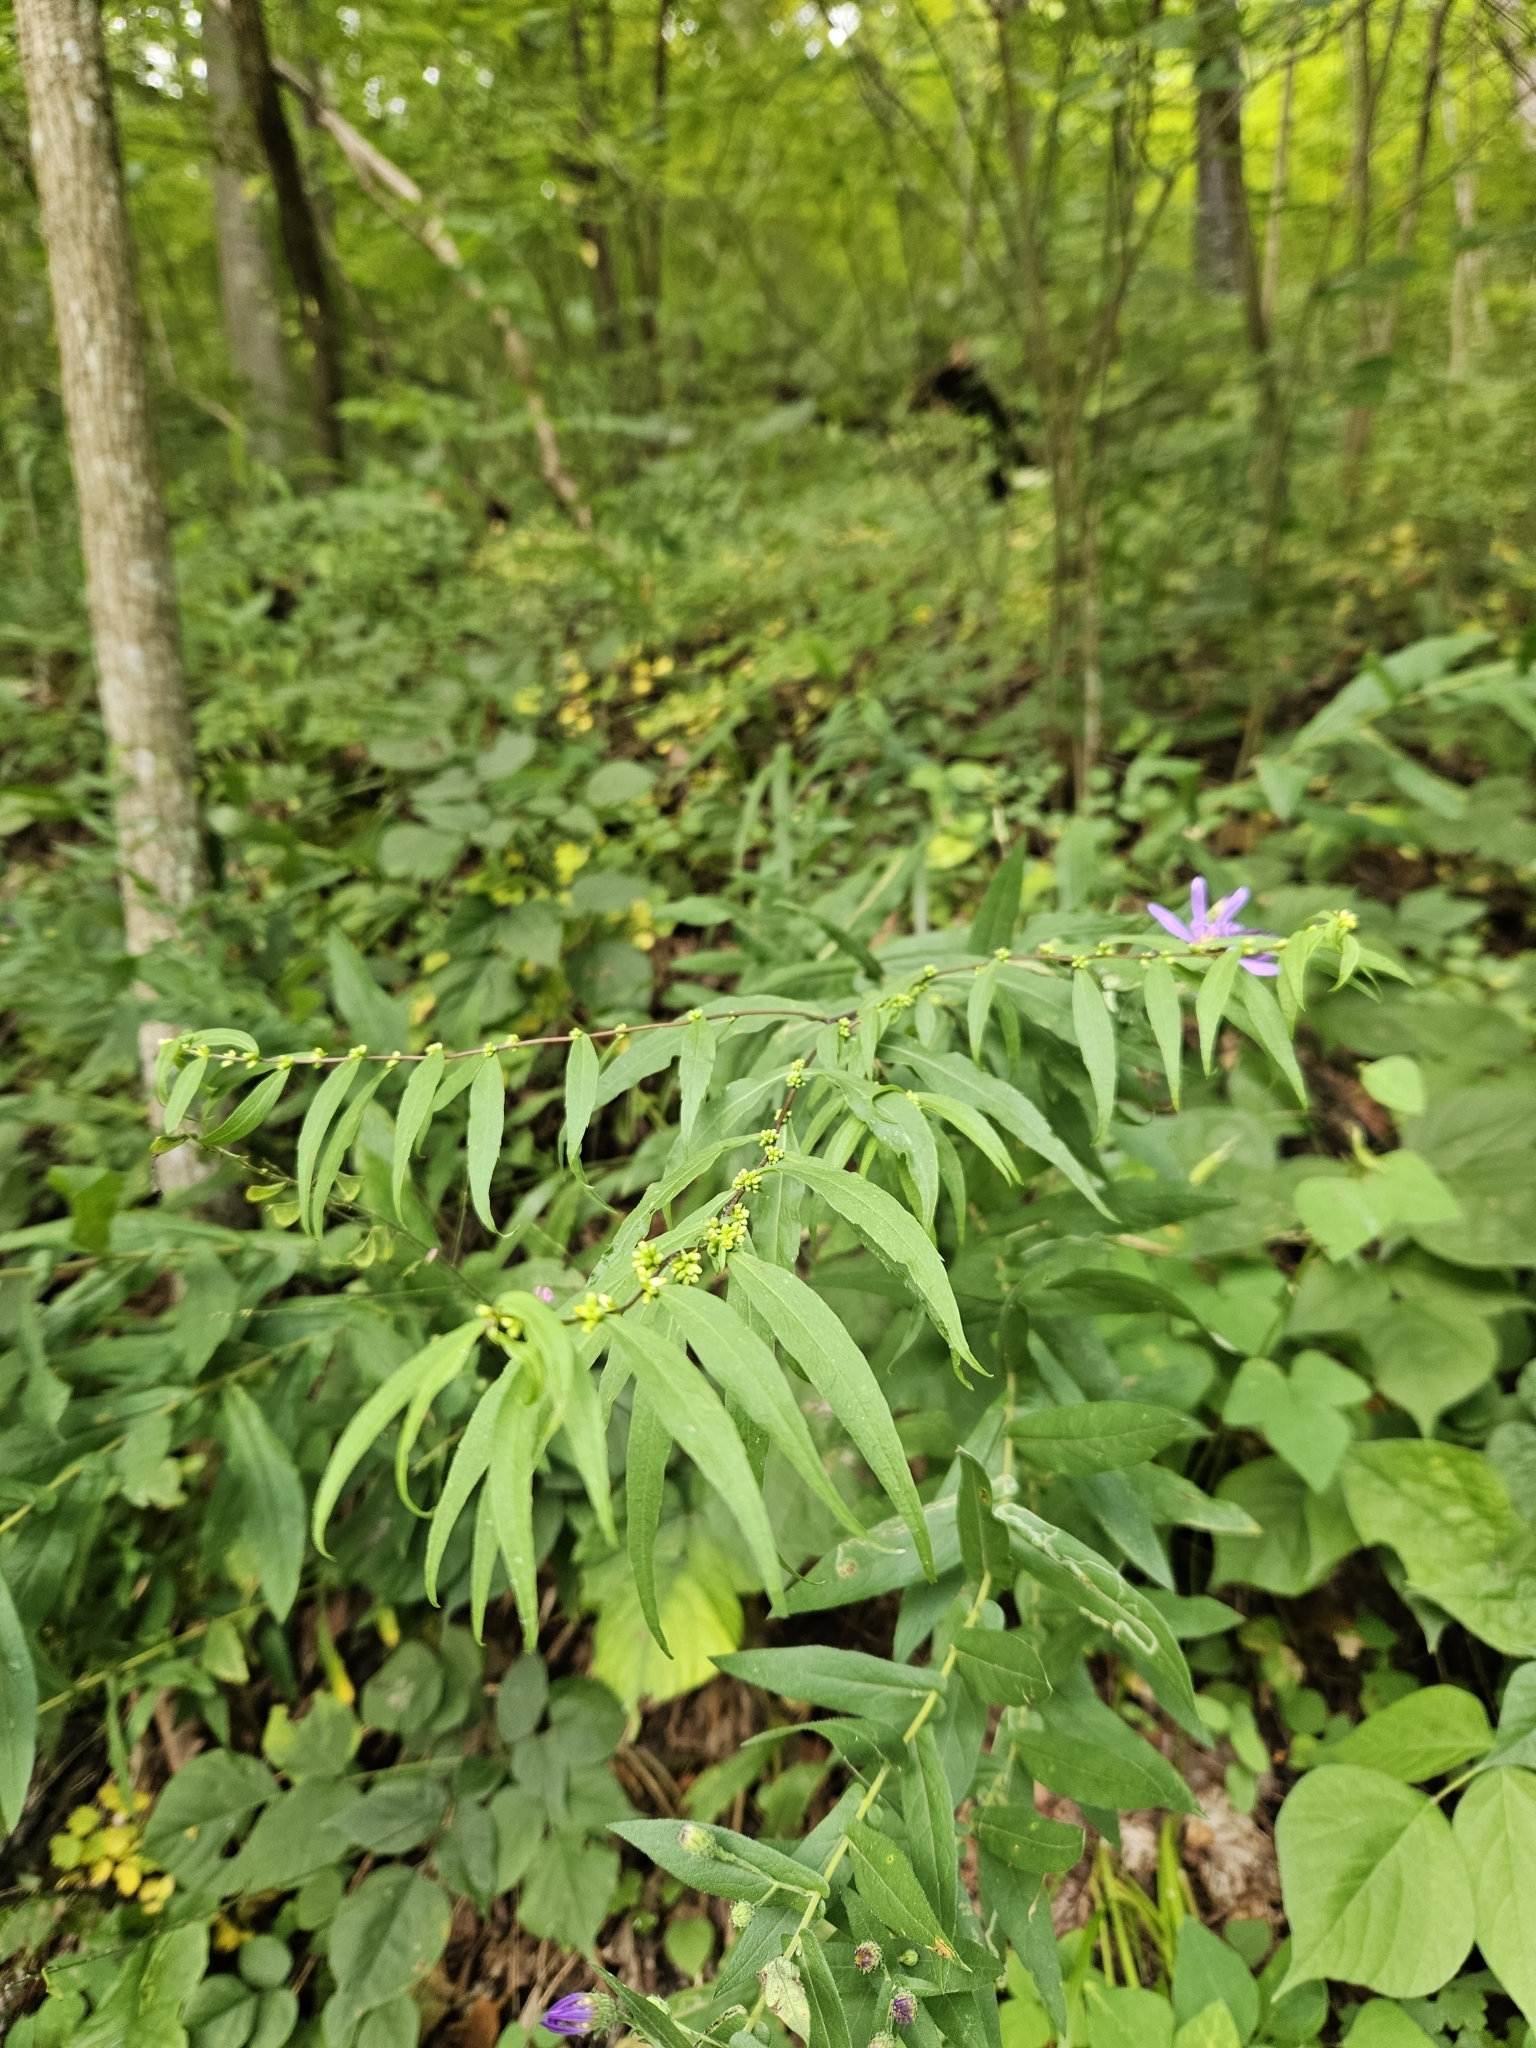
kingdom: Plantae
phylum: Tracheophyta
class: Magnoliopsida
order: Asterales
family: Asteraceae
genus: Solidago
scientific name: Solidago caesia
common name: Woodland goldenrod
